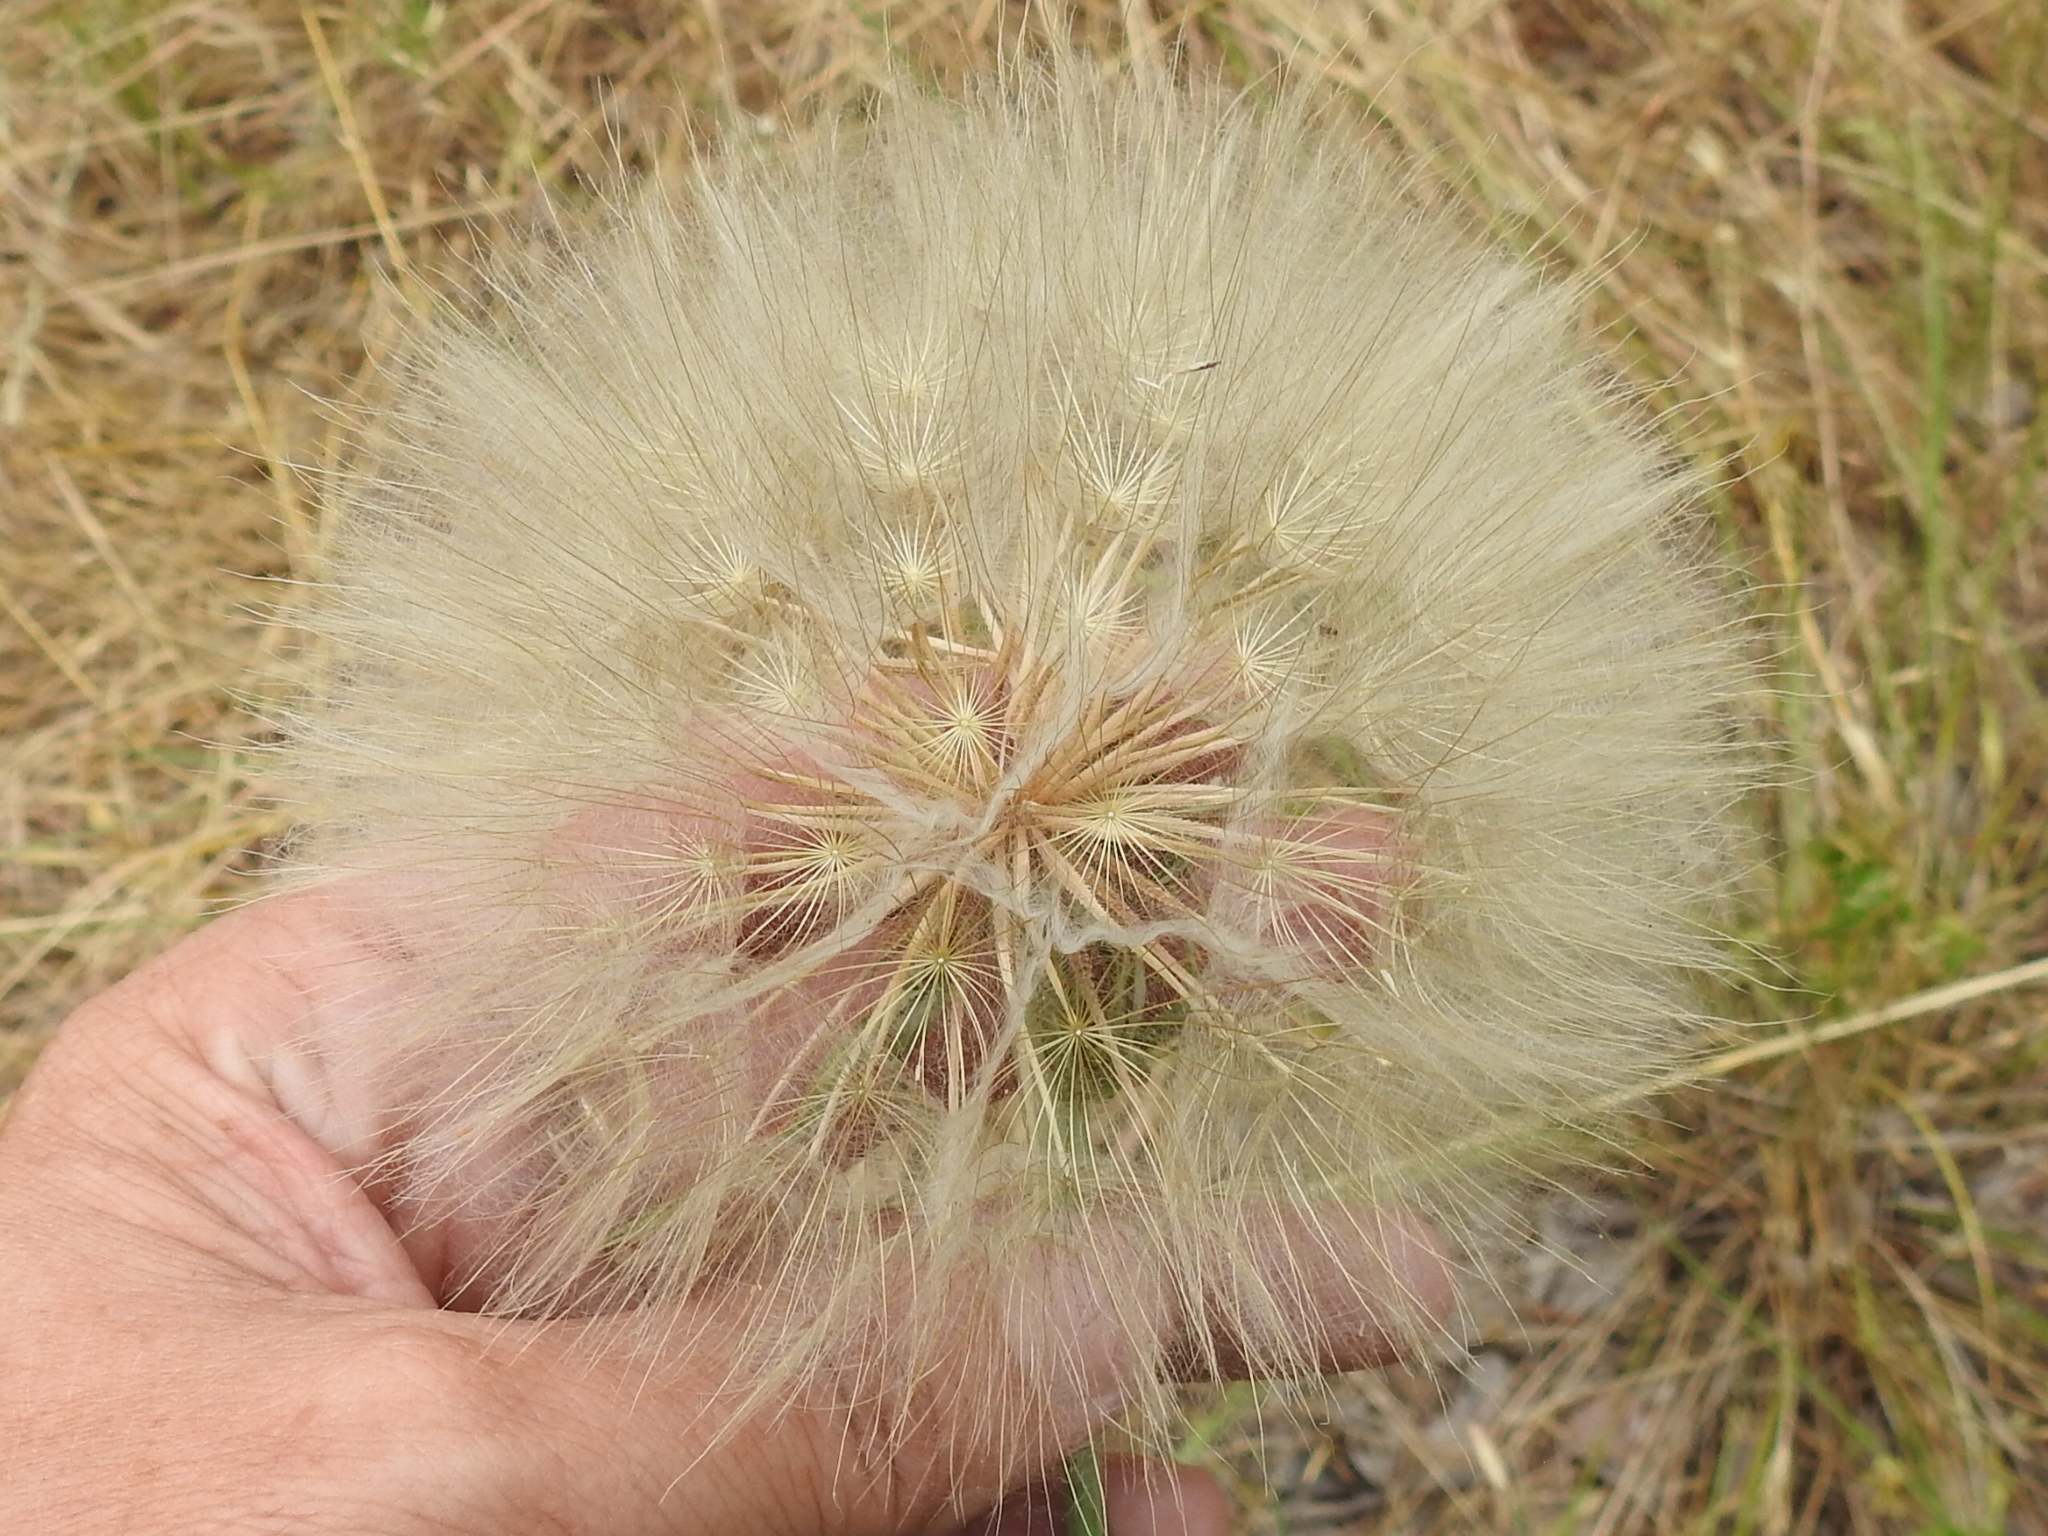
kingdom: Plantae
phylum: Tracheophyta
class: Magnoliopsida
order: Asterales
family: Asteraceae
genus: Tragopogon
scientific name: Tragopogon dubius
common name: Yellow salsify
